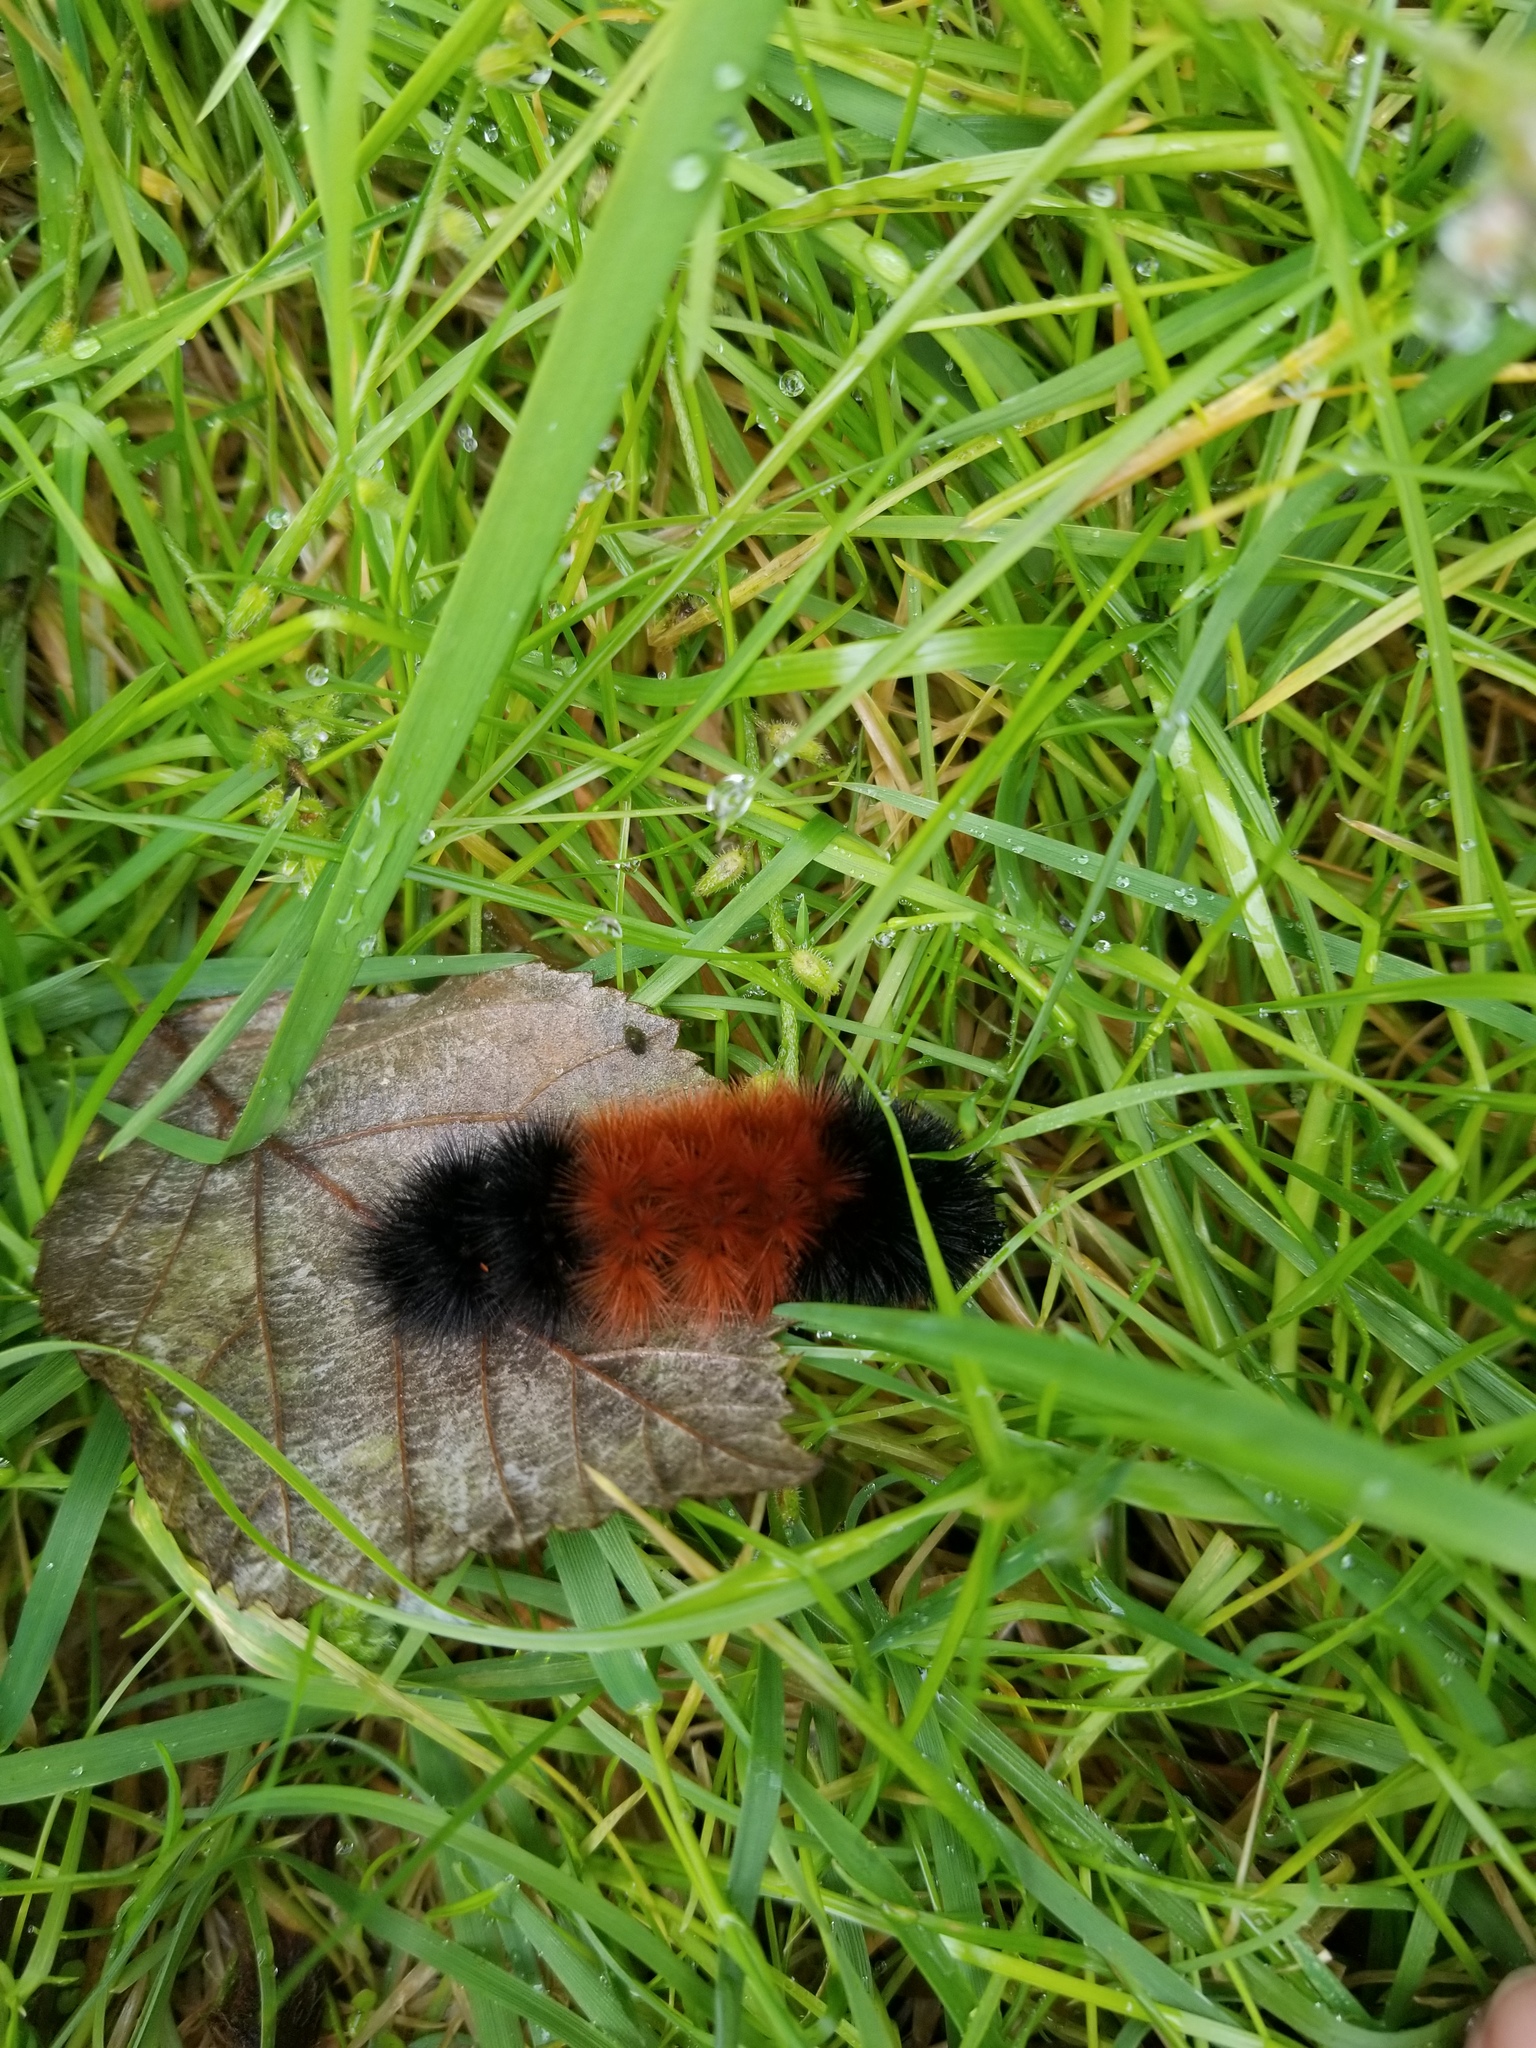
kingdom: Animalia
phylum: Arthropoda
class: Insecta
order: Lepidoptera
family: Erebidae
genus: Pyrrharctia
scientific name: Pyrrharctia isabella
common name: Isabella tiger moth
